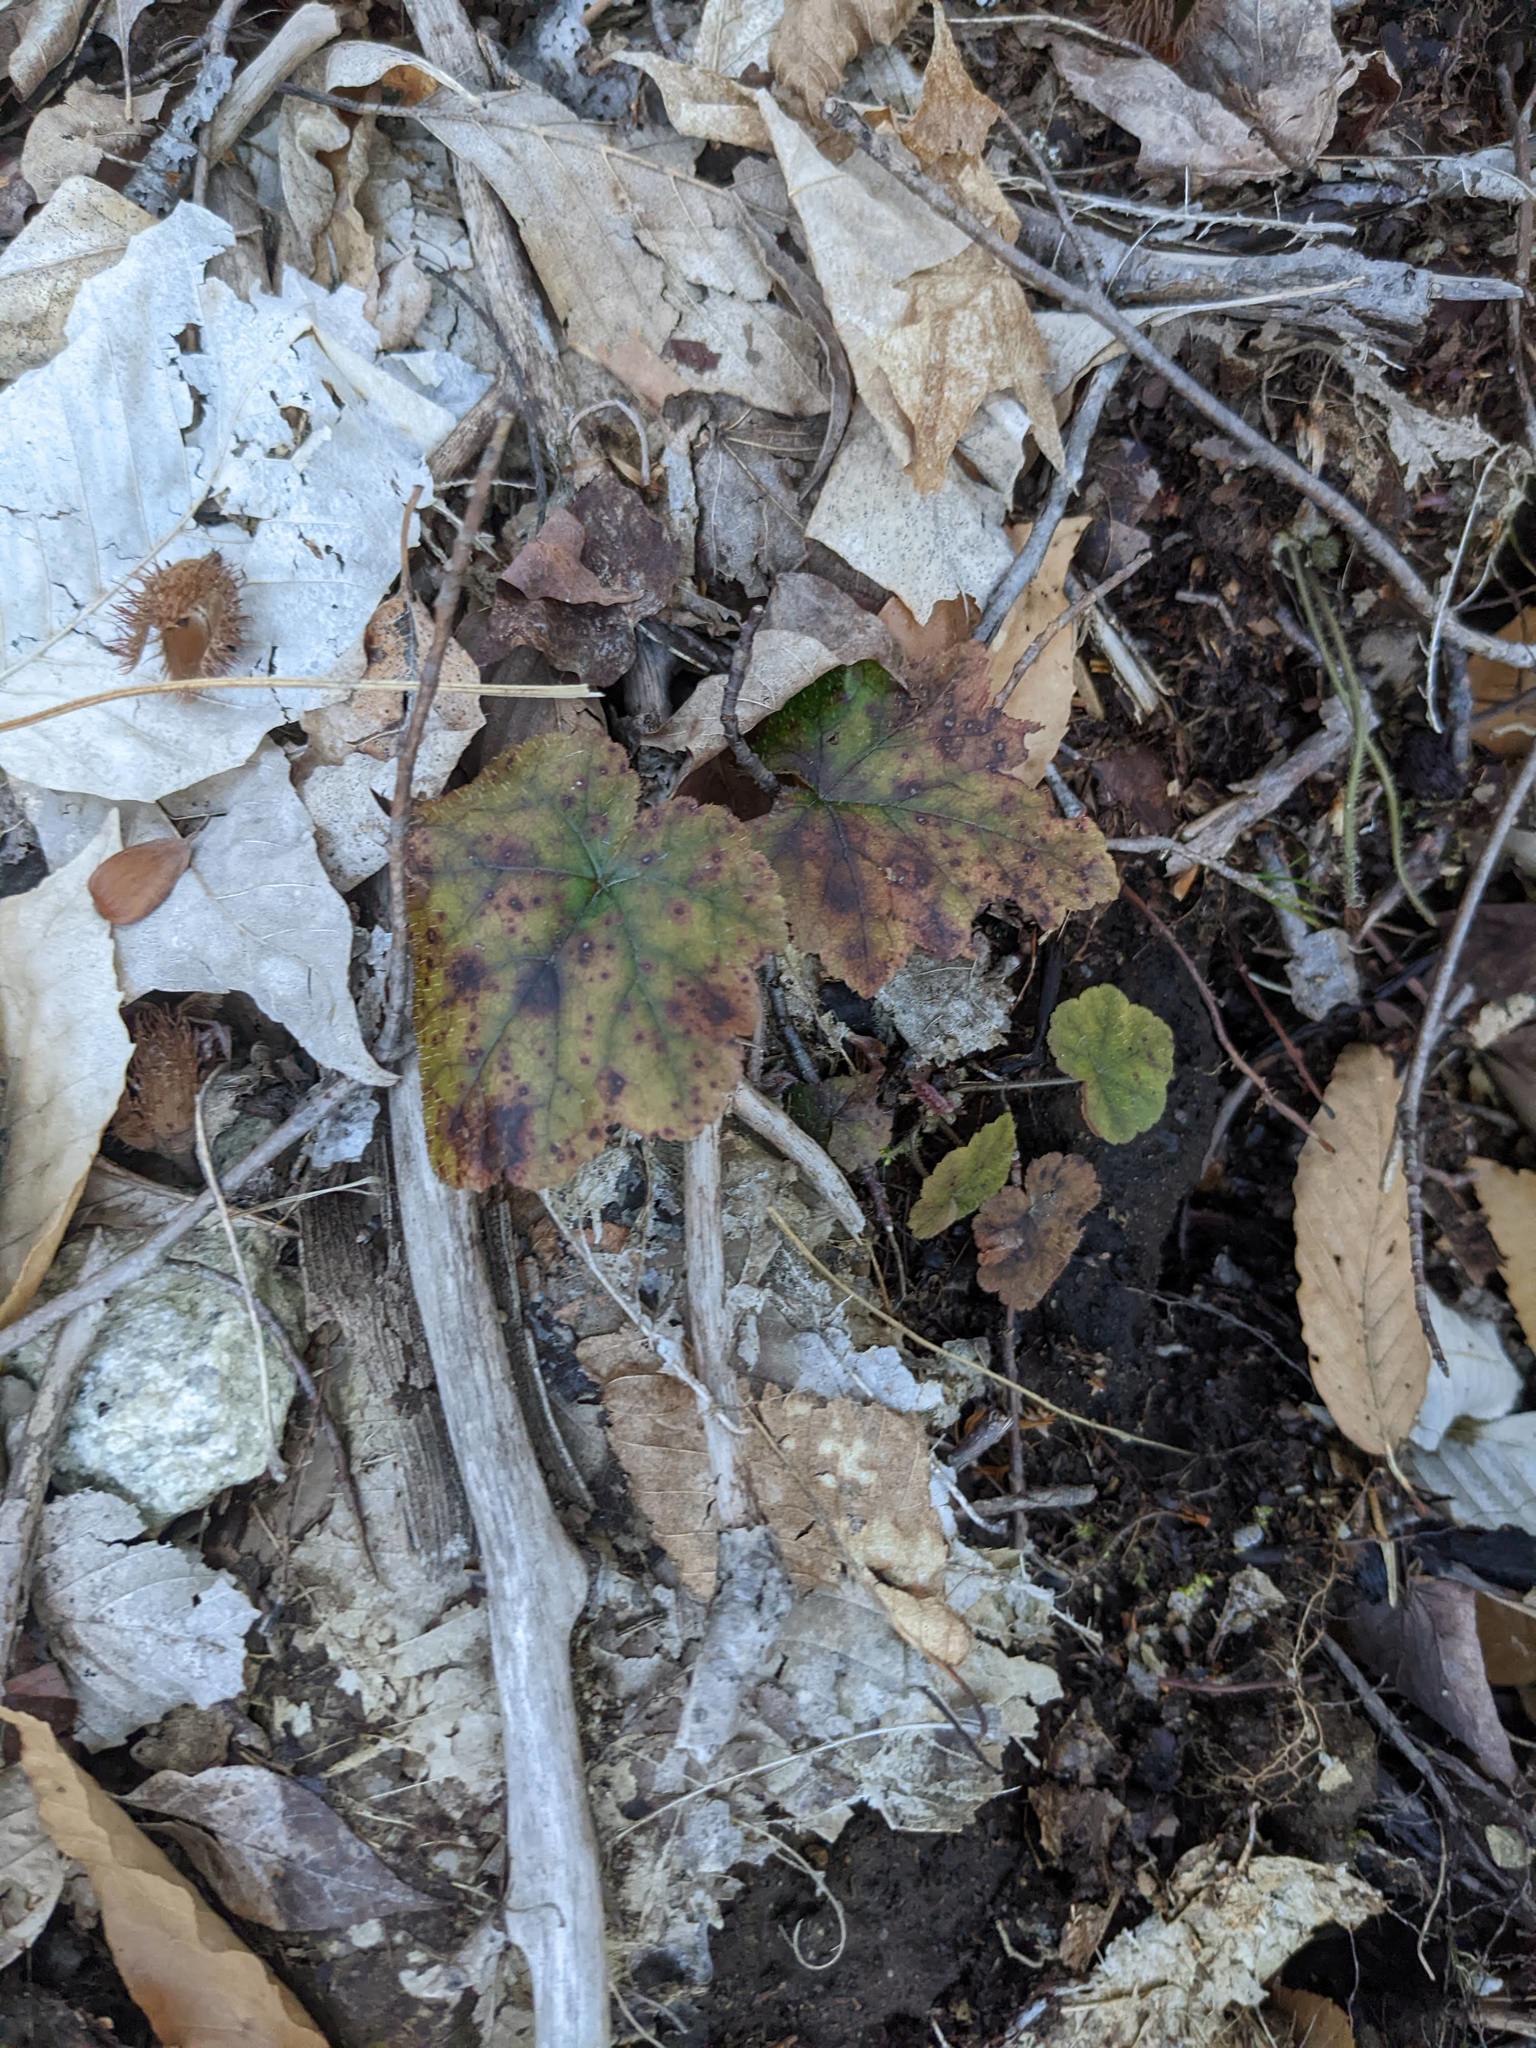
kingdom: Plantae
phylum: Tracheophyta
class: Magnoliopsida
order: Saxifragales
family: Saxifragaceae
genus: Tiarella
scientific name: Tiarella stolonifera
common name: Stoloniferous foamflower
